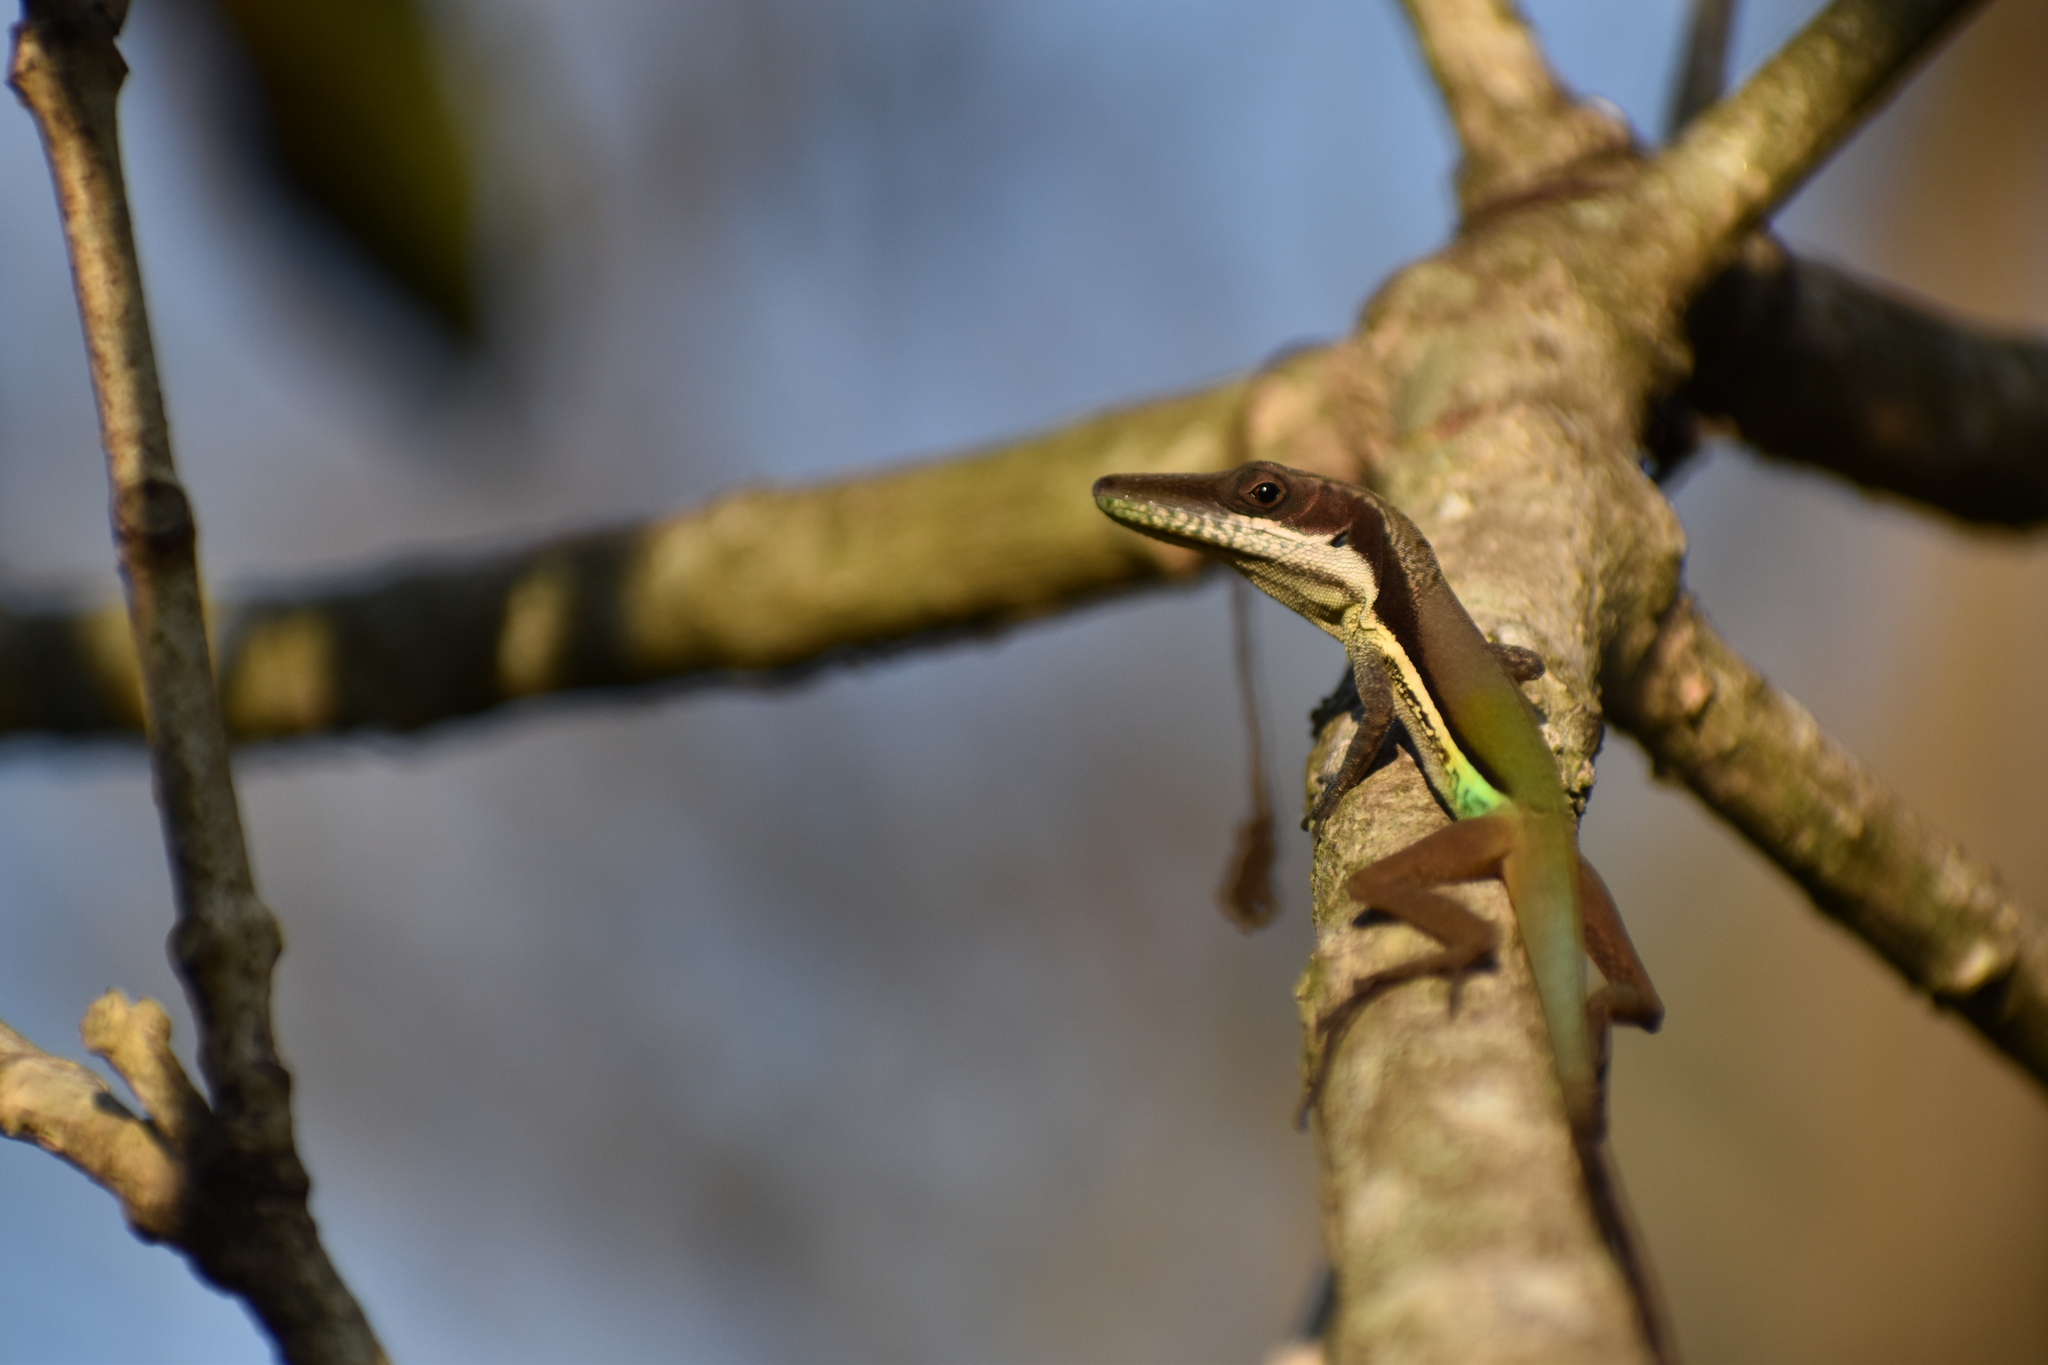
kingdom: Animalia
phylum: Chordata
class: Squamata
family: Dactyloidae
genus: Anolis
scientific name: Anolis hendersoni
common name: Henderson's anole
